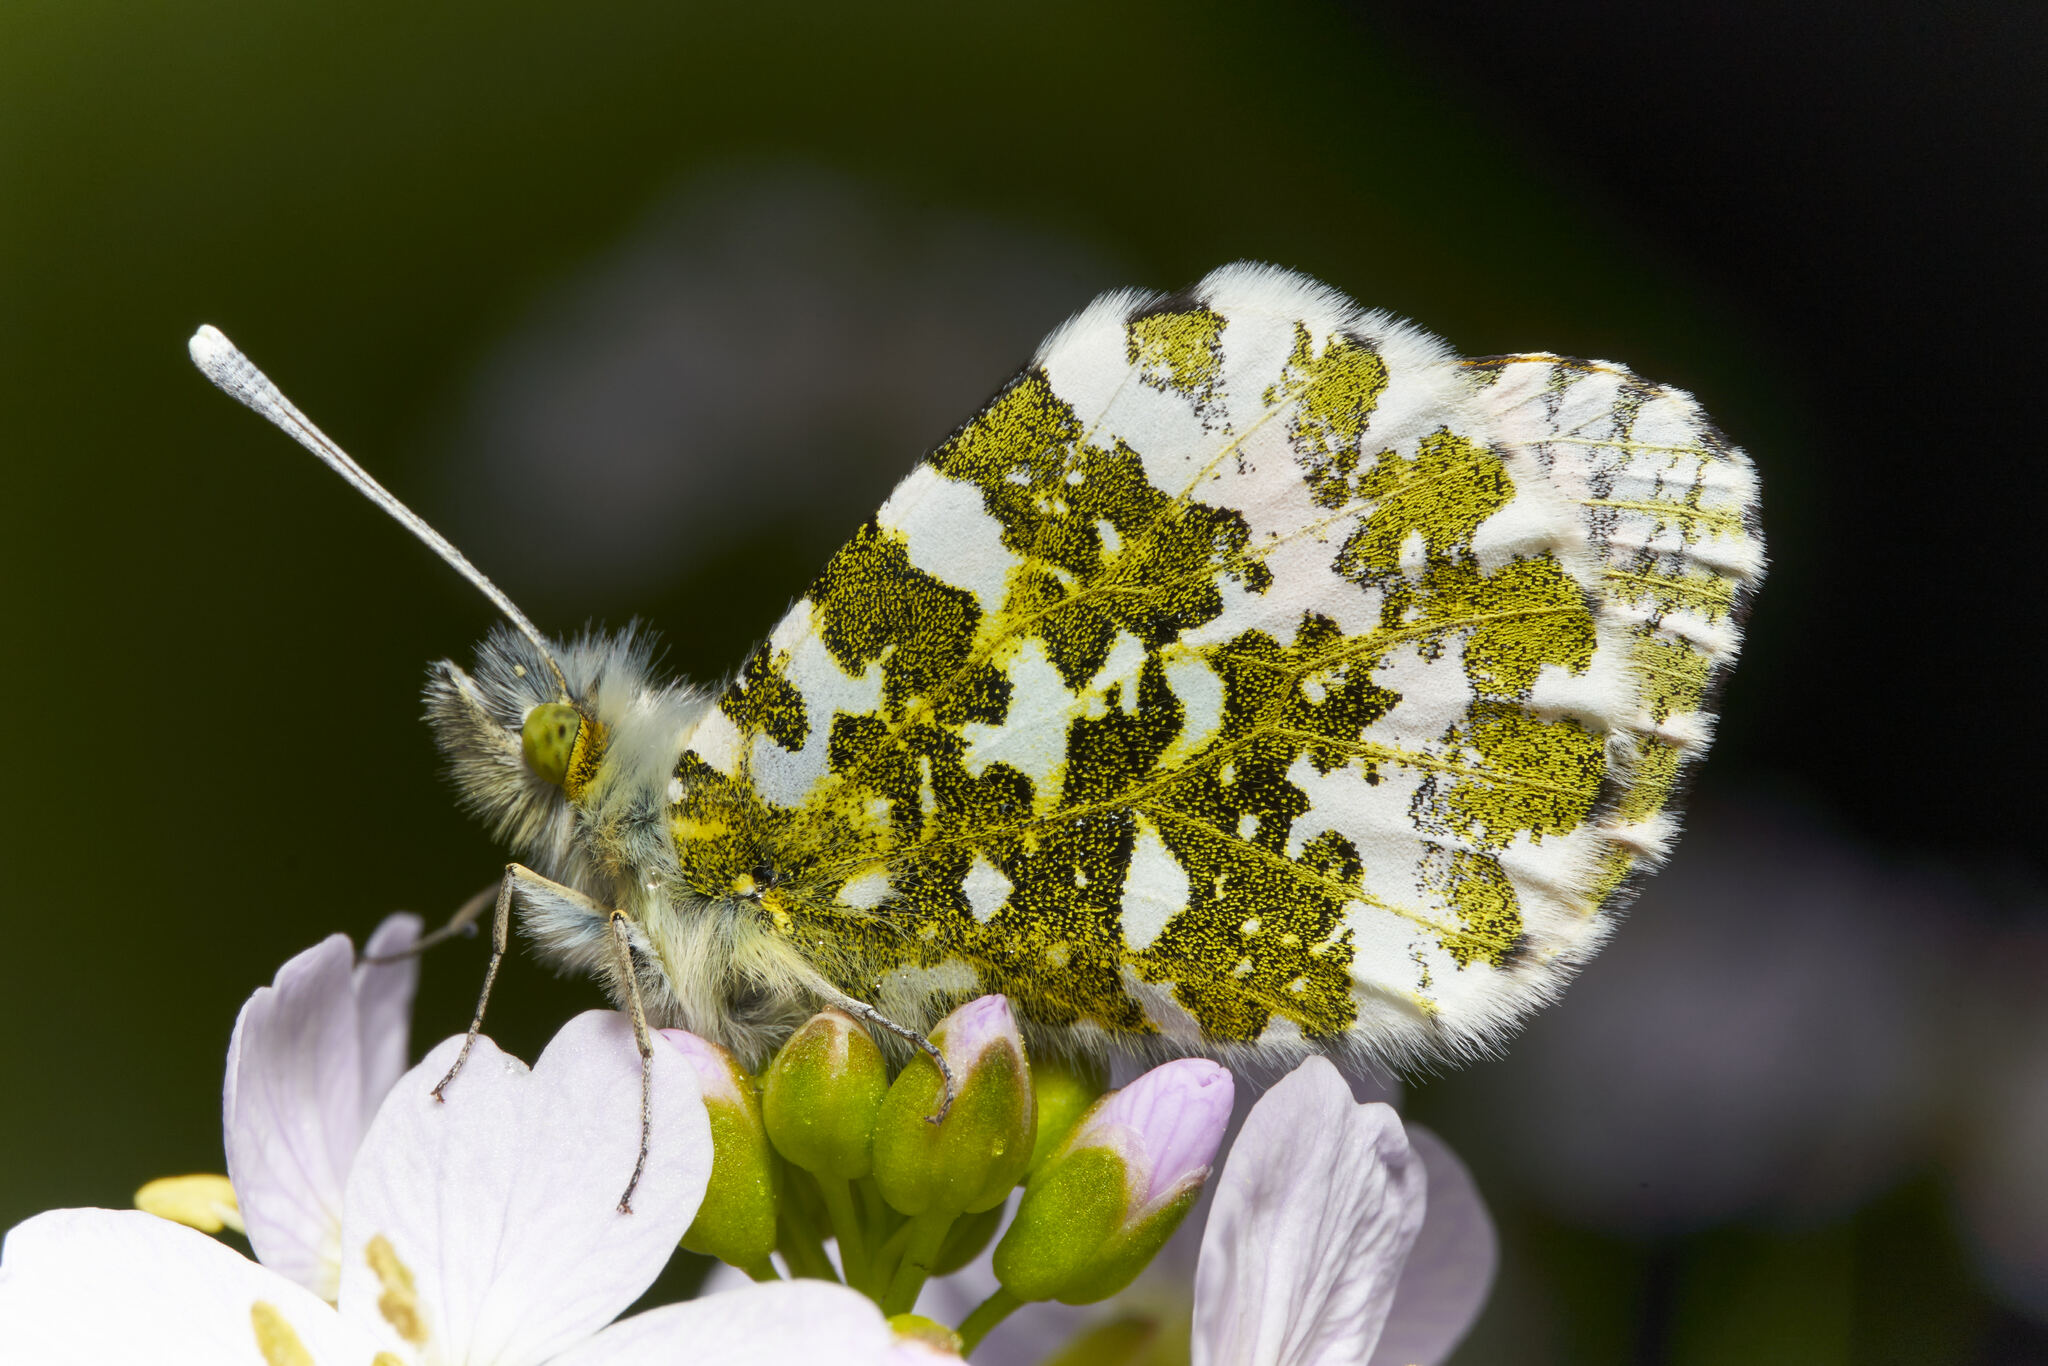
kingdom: Animalia
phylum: Arthropoda
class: Insecta
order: Lepidoptera
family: Pieridae
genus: Anthocharis
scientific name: Anthocharis cardamines
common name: Orange-tip
